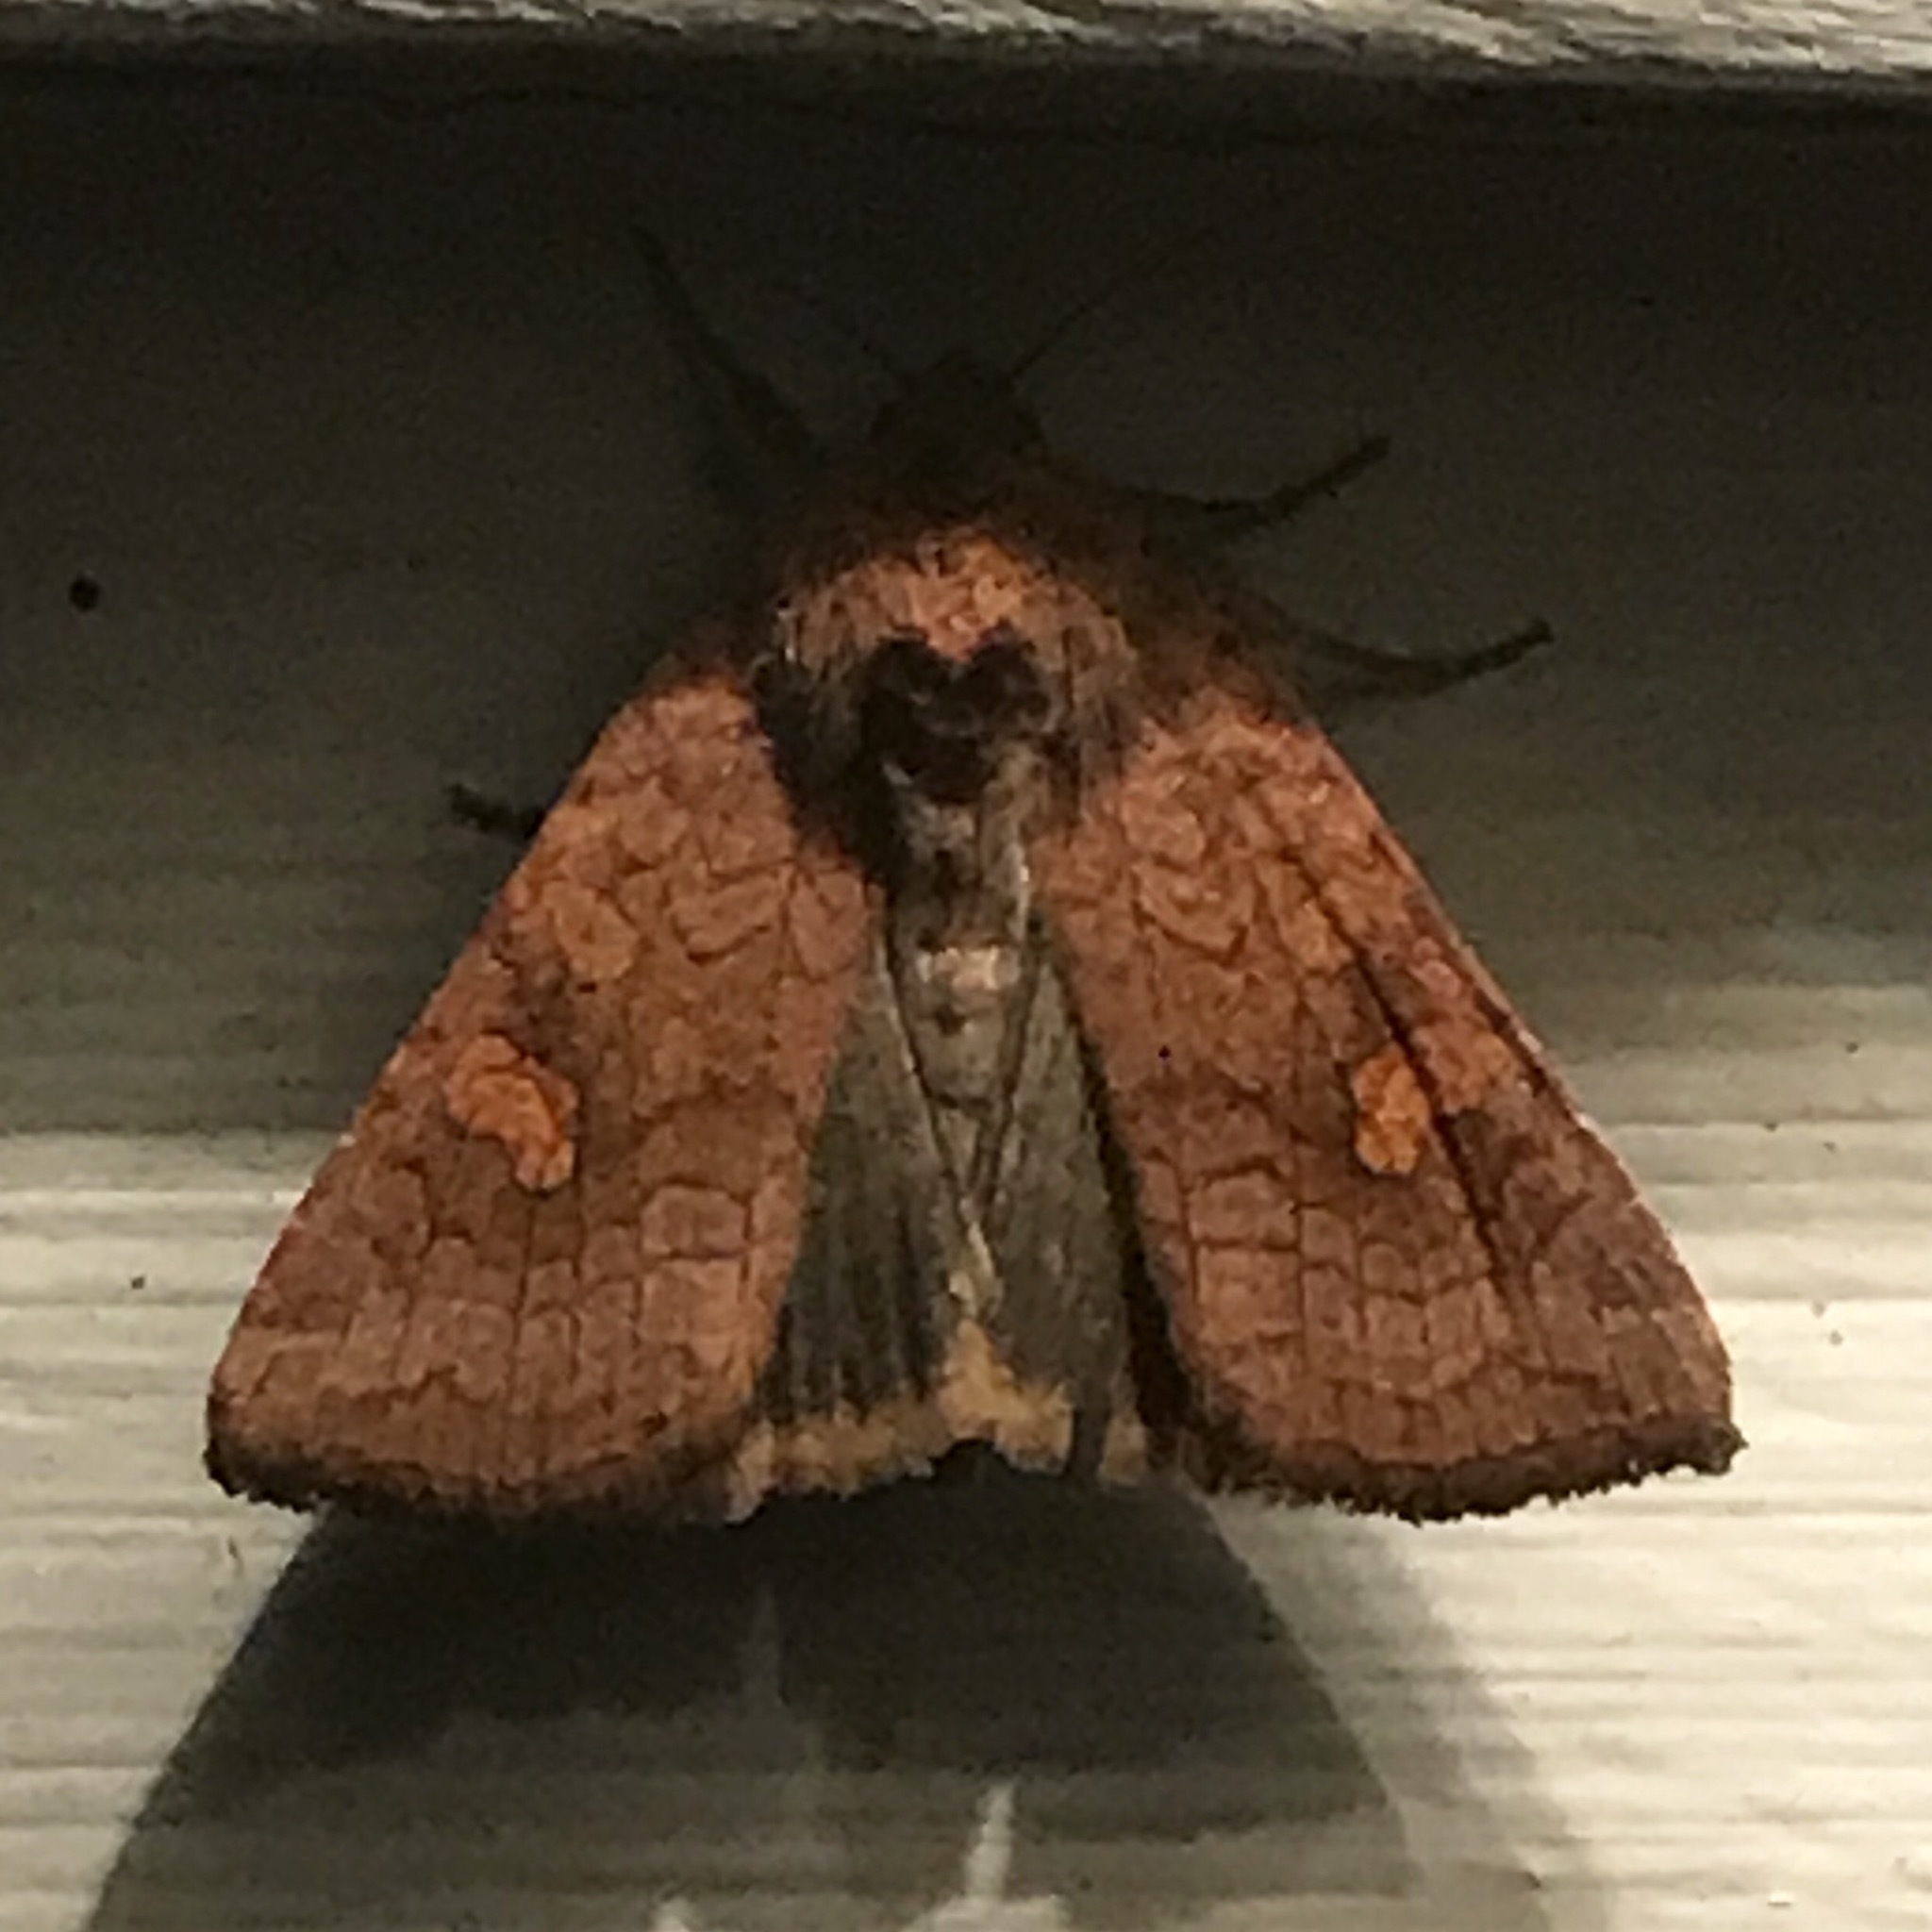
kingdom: Animalia
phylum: Arthropoda
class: Insecta
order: Lepidoptera
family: Noctuidae
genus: Amphipoea
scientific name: Amphipoea
